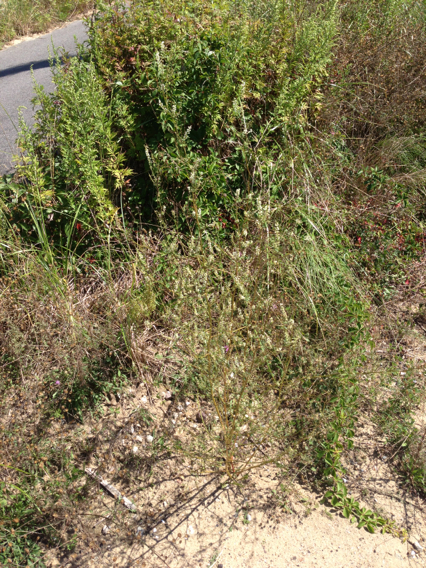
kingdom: Plantae
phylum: Tracheophyta
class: Magnoliopsida
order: Fabales
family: Fabaceae
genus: Melilotus
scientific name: Melilotus albus
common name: White melilot
